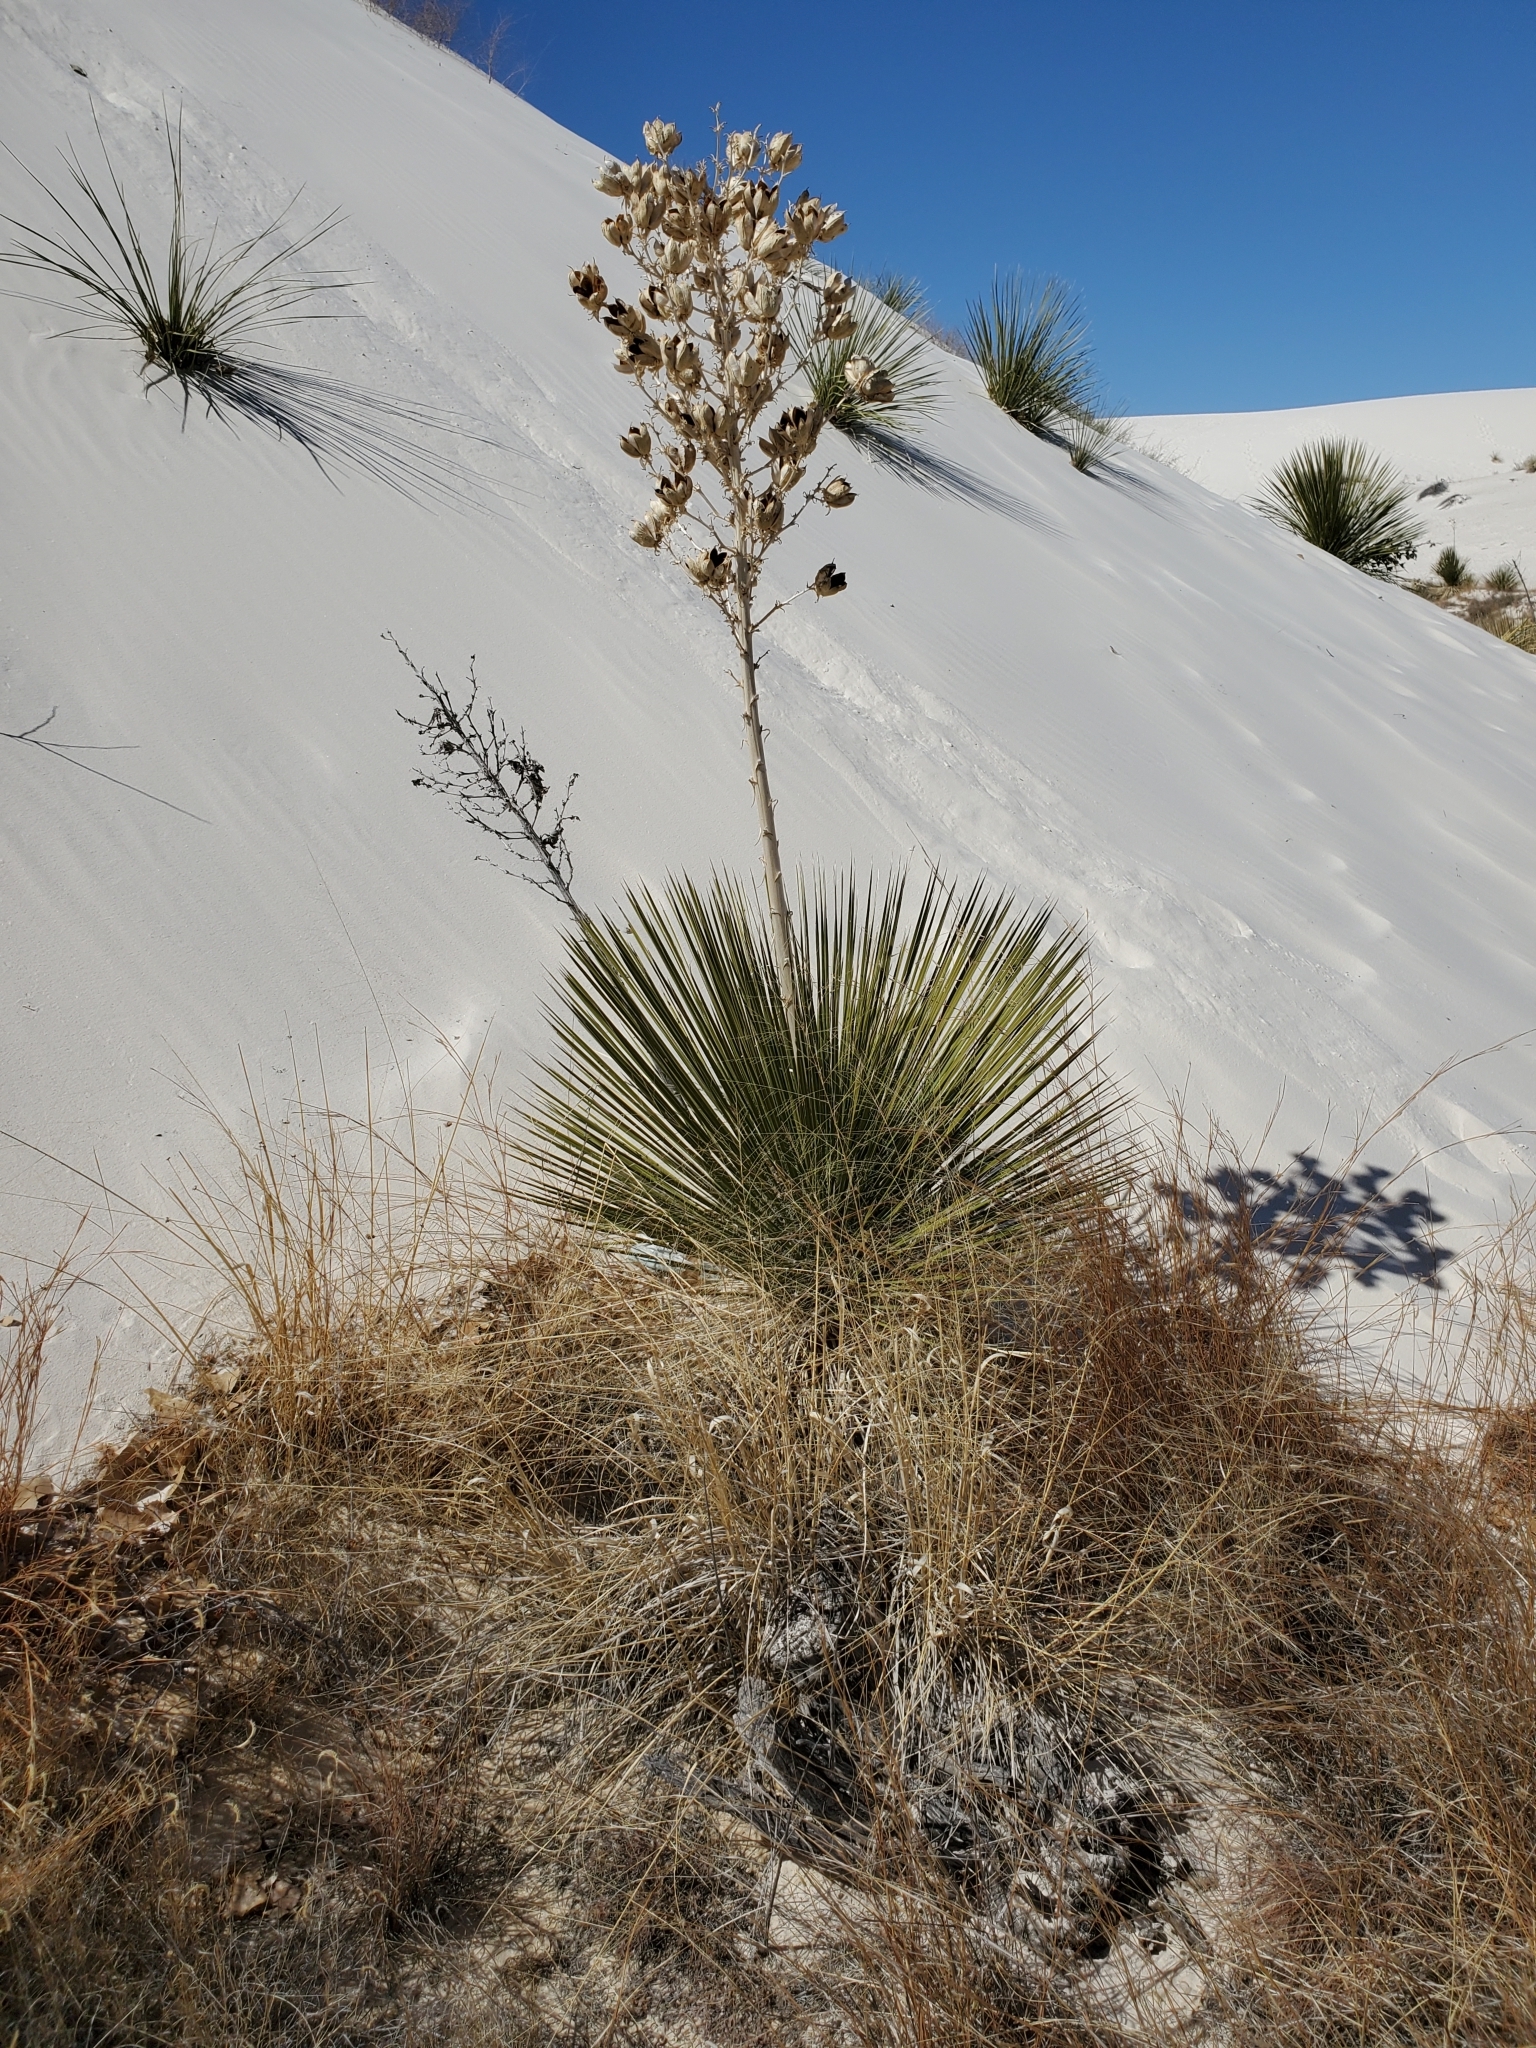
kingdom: Plantae
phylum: Tracheophyta
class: Liliopsida
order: Asparagales
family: Asparagaceae
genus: Yucca
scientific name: Yucca elata
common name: Palmella
